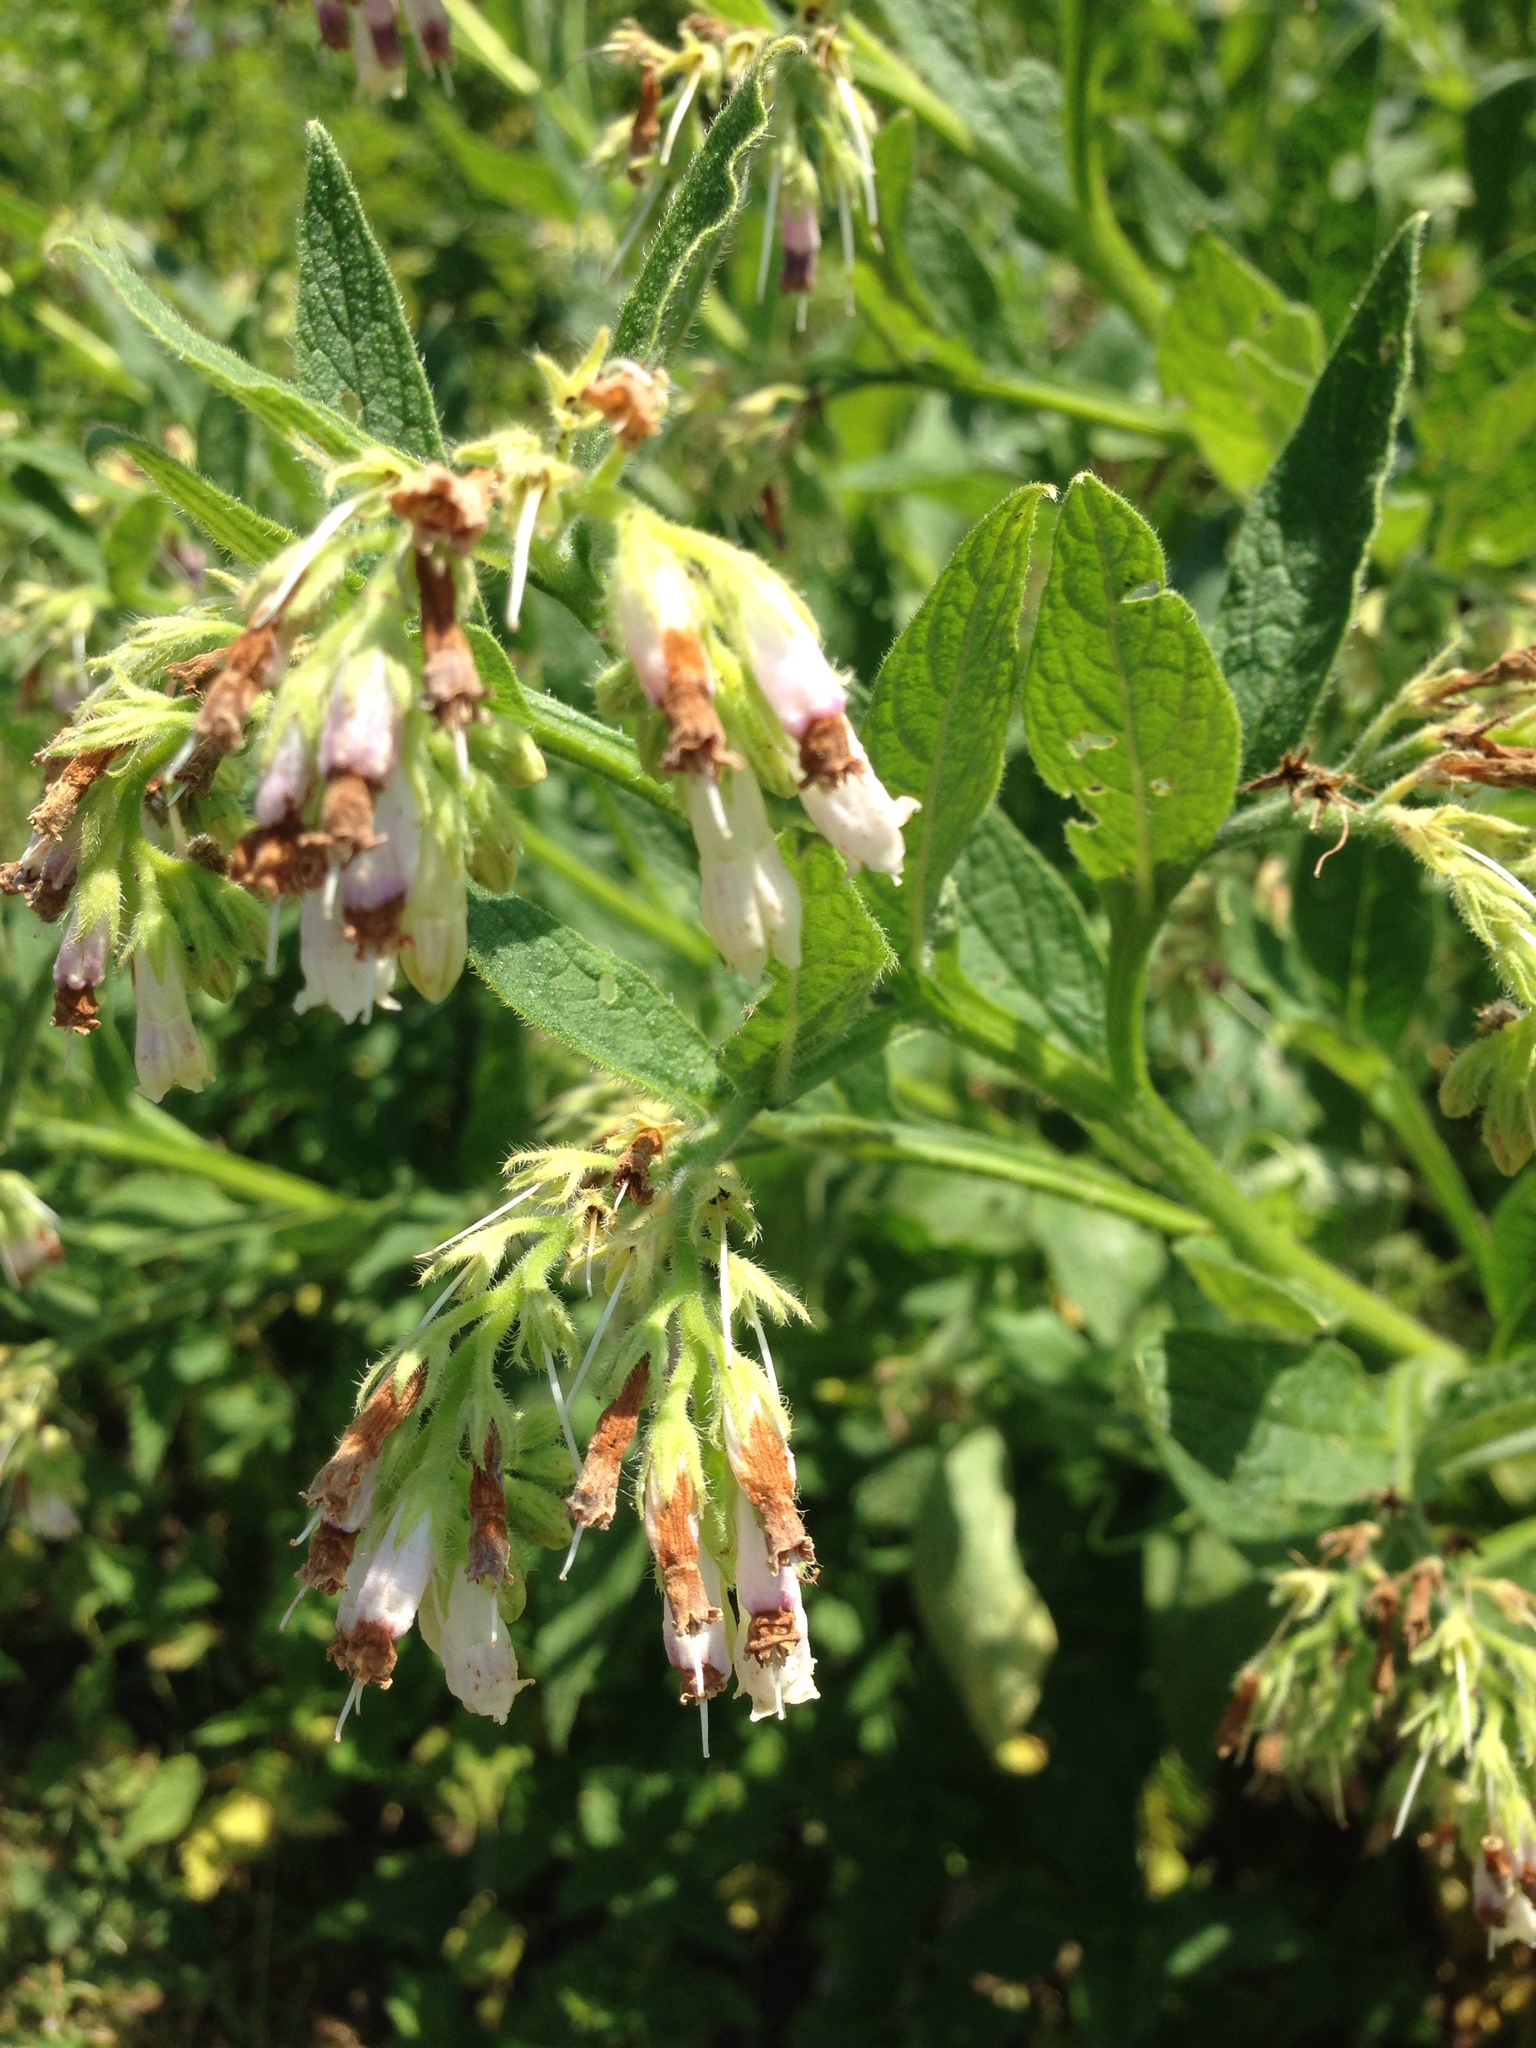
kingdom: Plantae
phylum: Tracheophyta
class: Magnoliopsida
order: Boraginales
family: Boraginaceae
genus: Symphytum
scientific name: Symphytum officinale
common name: Common comfrey
